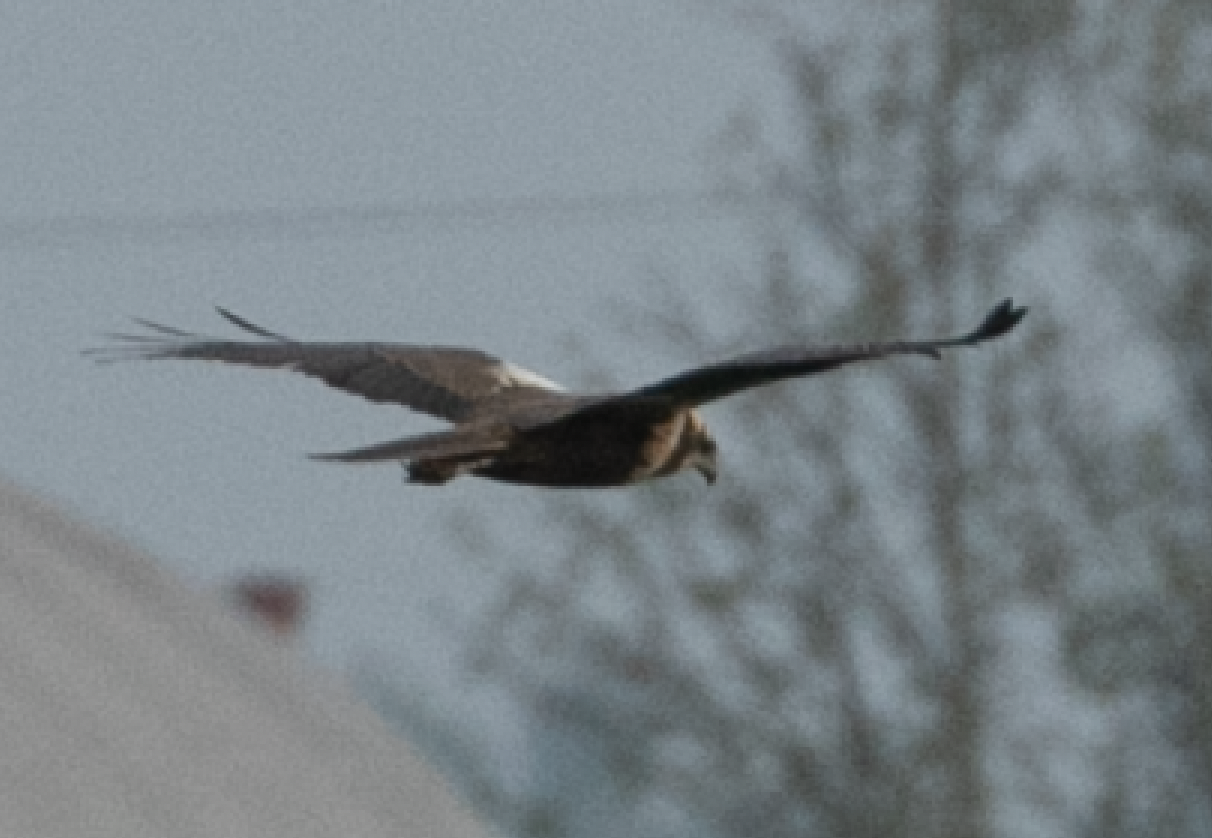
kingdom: Animalia
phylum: Chordata
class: Aves
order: Accipitriformes
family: Accipitridae
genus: Circus
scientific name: Circus aeruginosus
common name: Western marsh harrier
